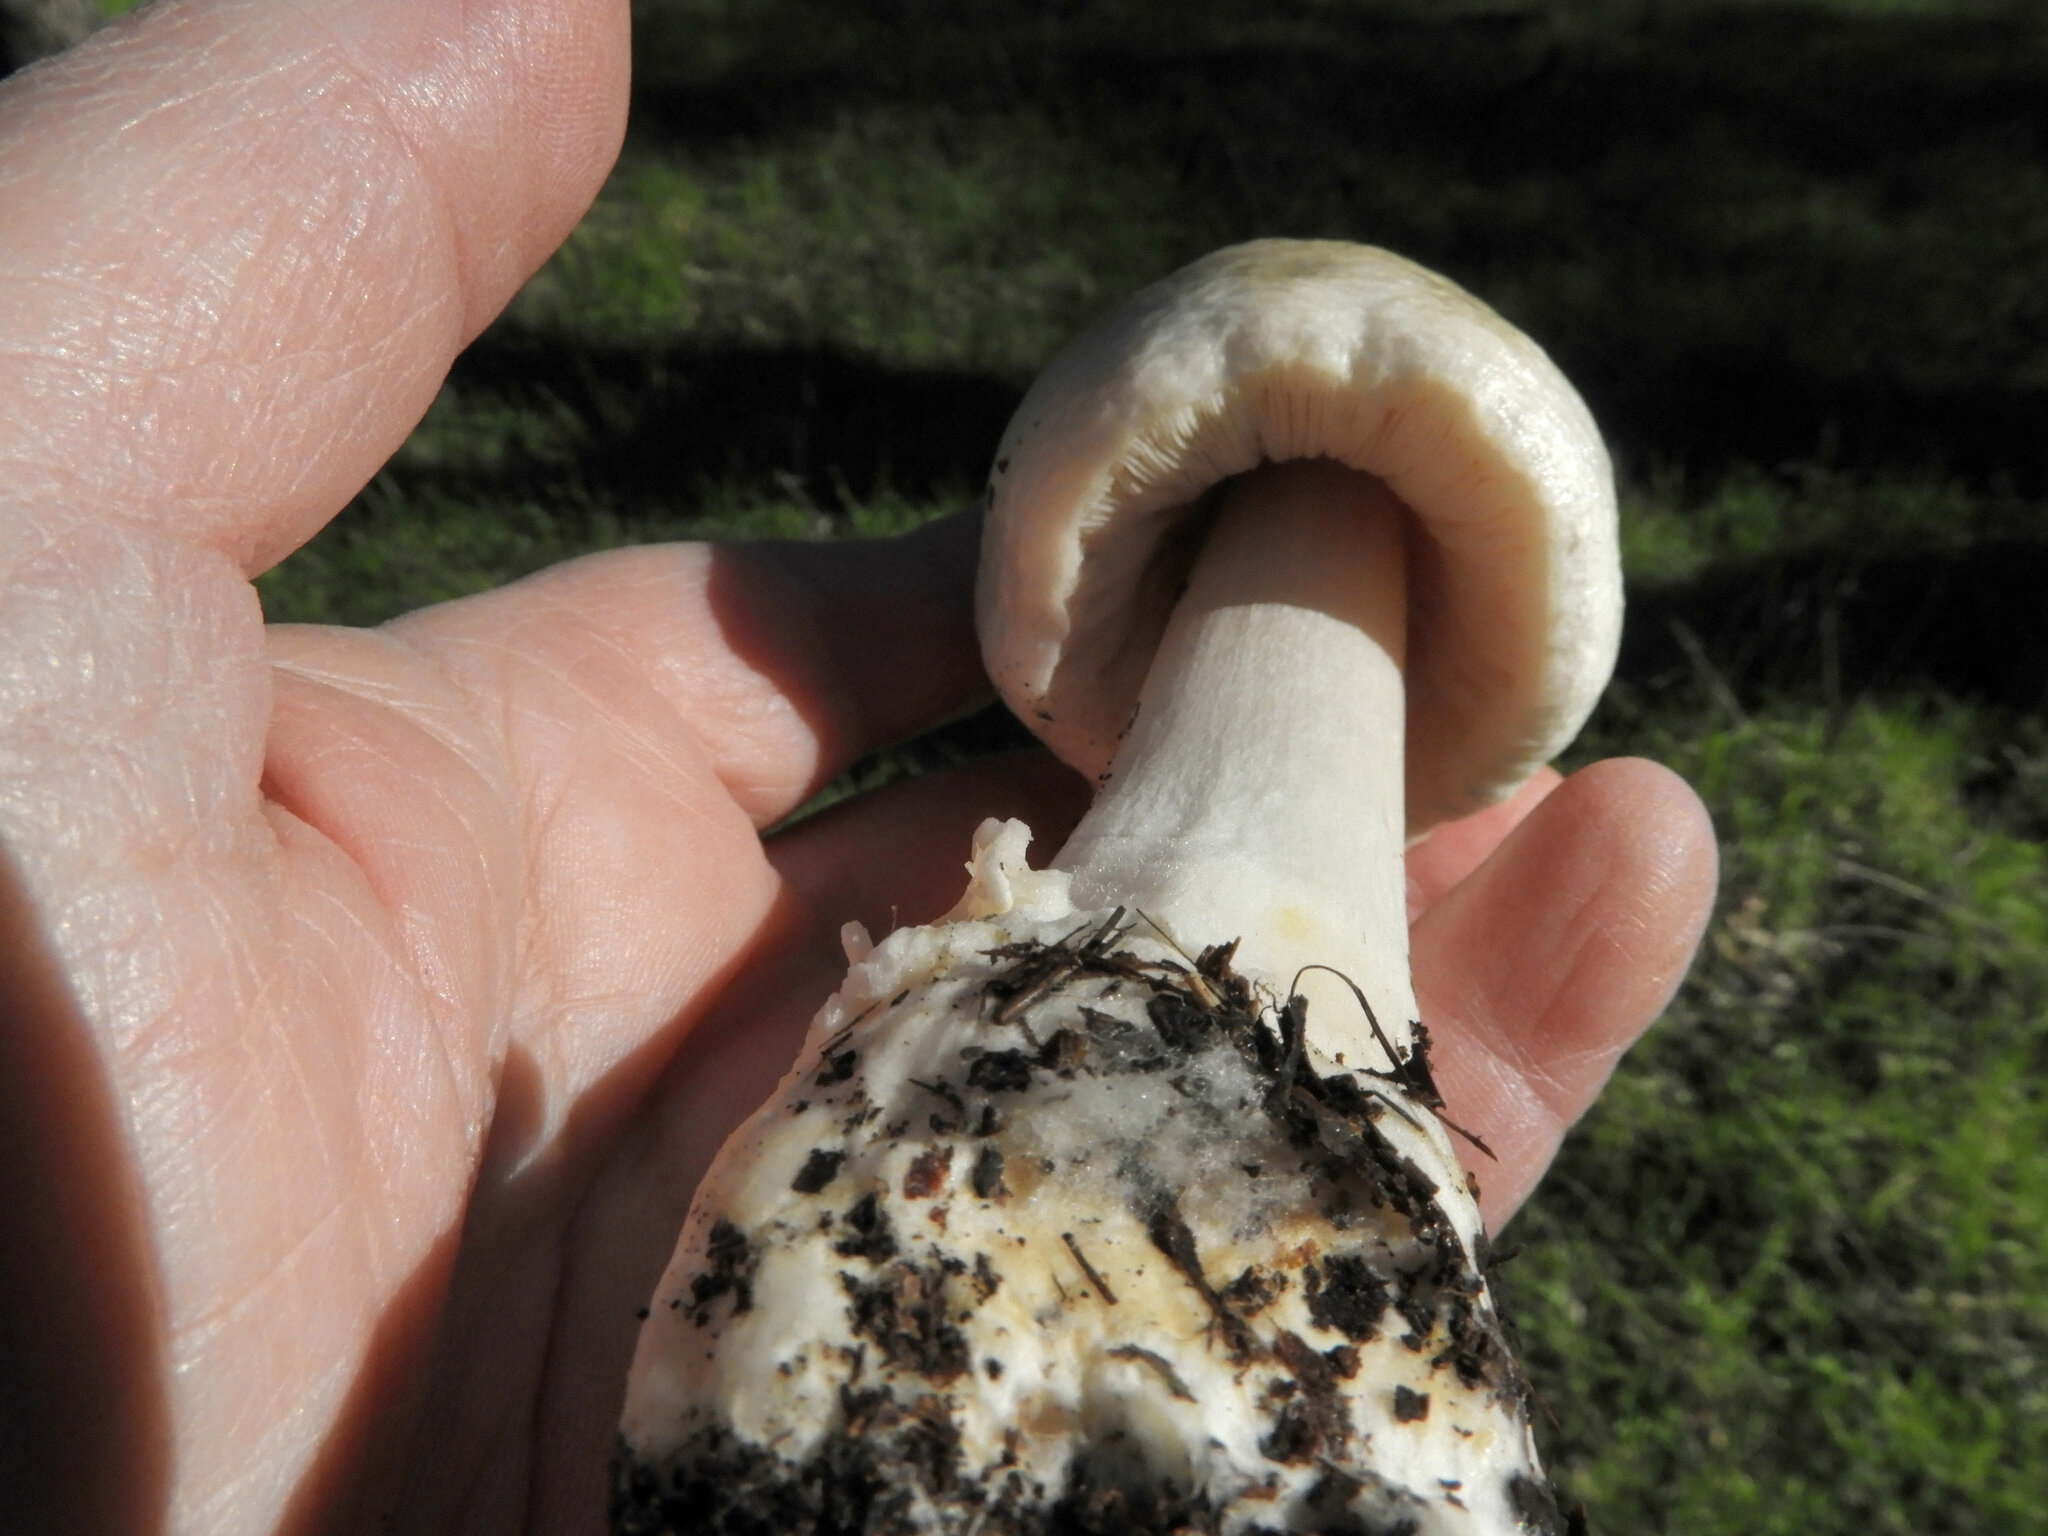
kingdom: Fungi
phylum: Basidiomycota
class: Agaricomycetes
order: Agaricales
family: Pluteaceae
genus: Volvopluteus
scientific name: Volvopluteus gloiocephalus
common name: Stubble rosegill
